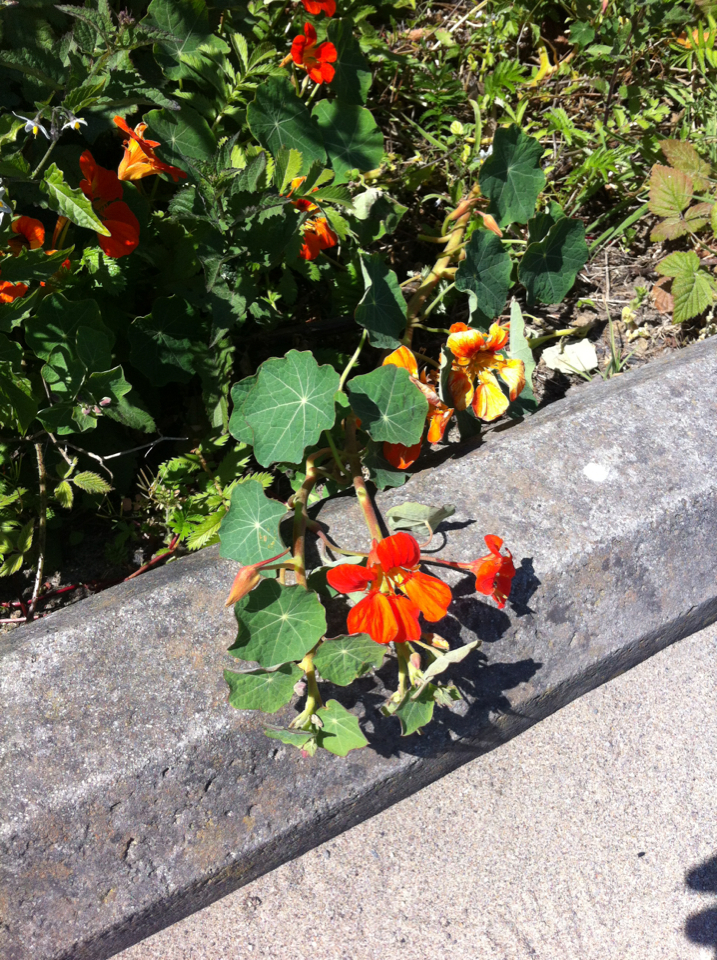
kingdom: Plantae
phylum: Tracheophyta
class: Magnoliopsida
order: Brassicales
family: Tropaeolaceae
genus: Tropaeolum
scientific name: Tropaeolum majus
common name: Nasturtium
